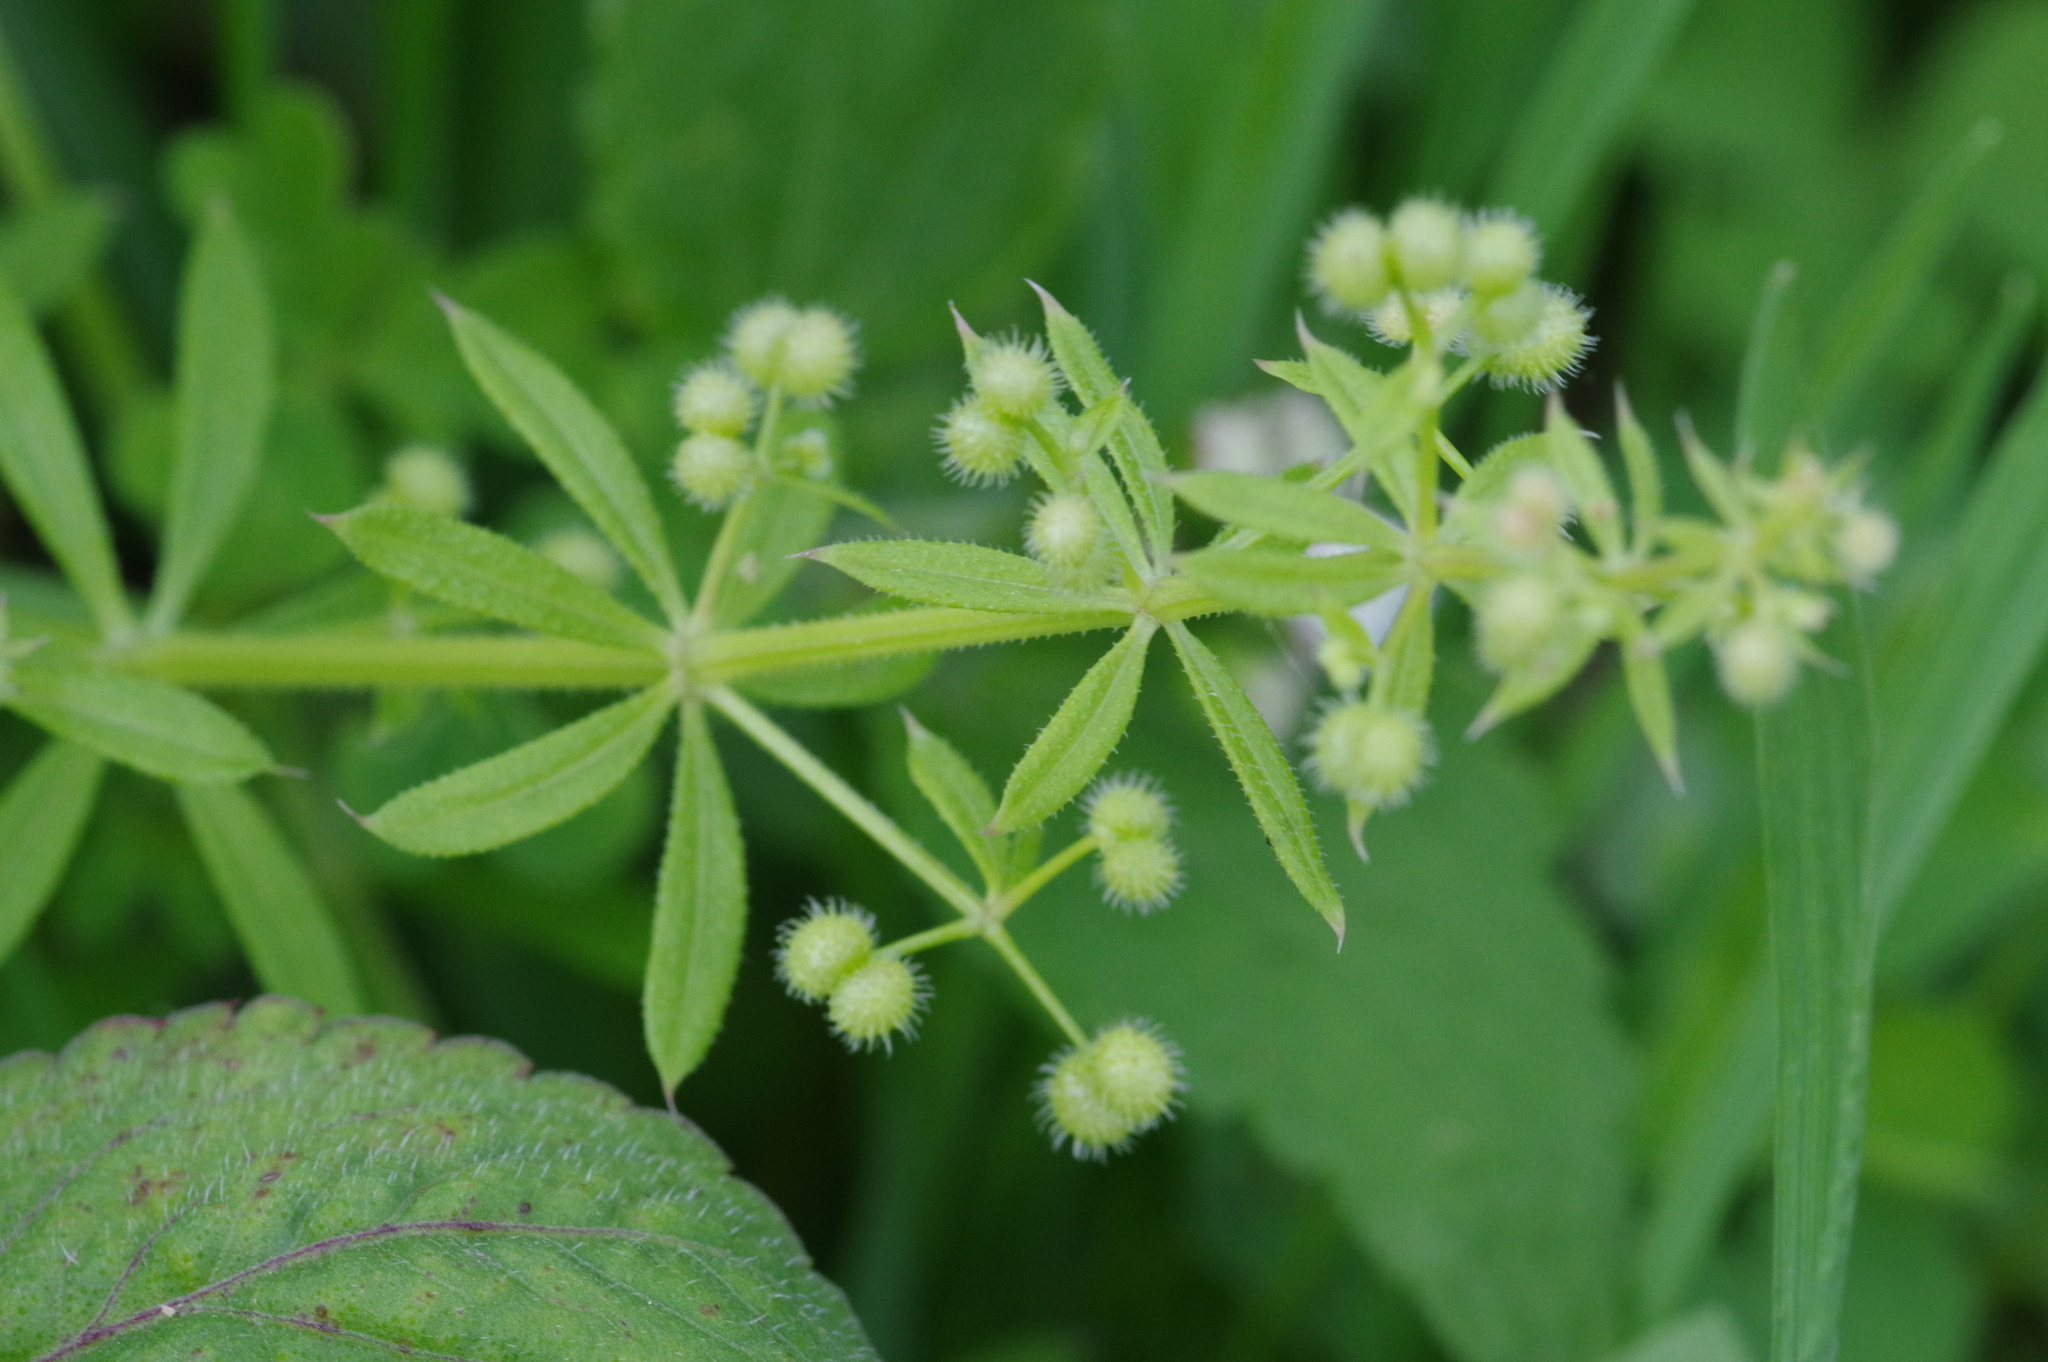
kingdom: Plantae
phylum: Tracheophyta
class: Magnoliopsida
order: Gentianales
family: Rubiaceae
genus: Galium
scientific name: Galium
